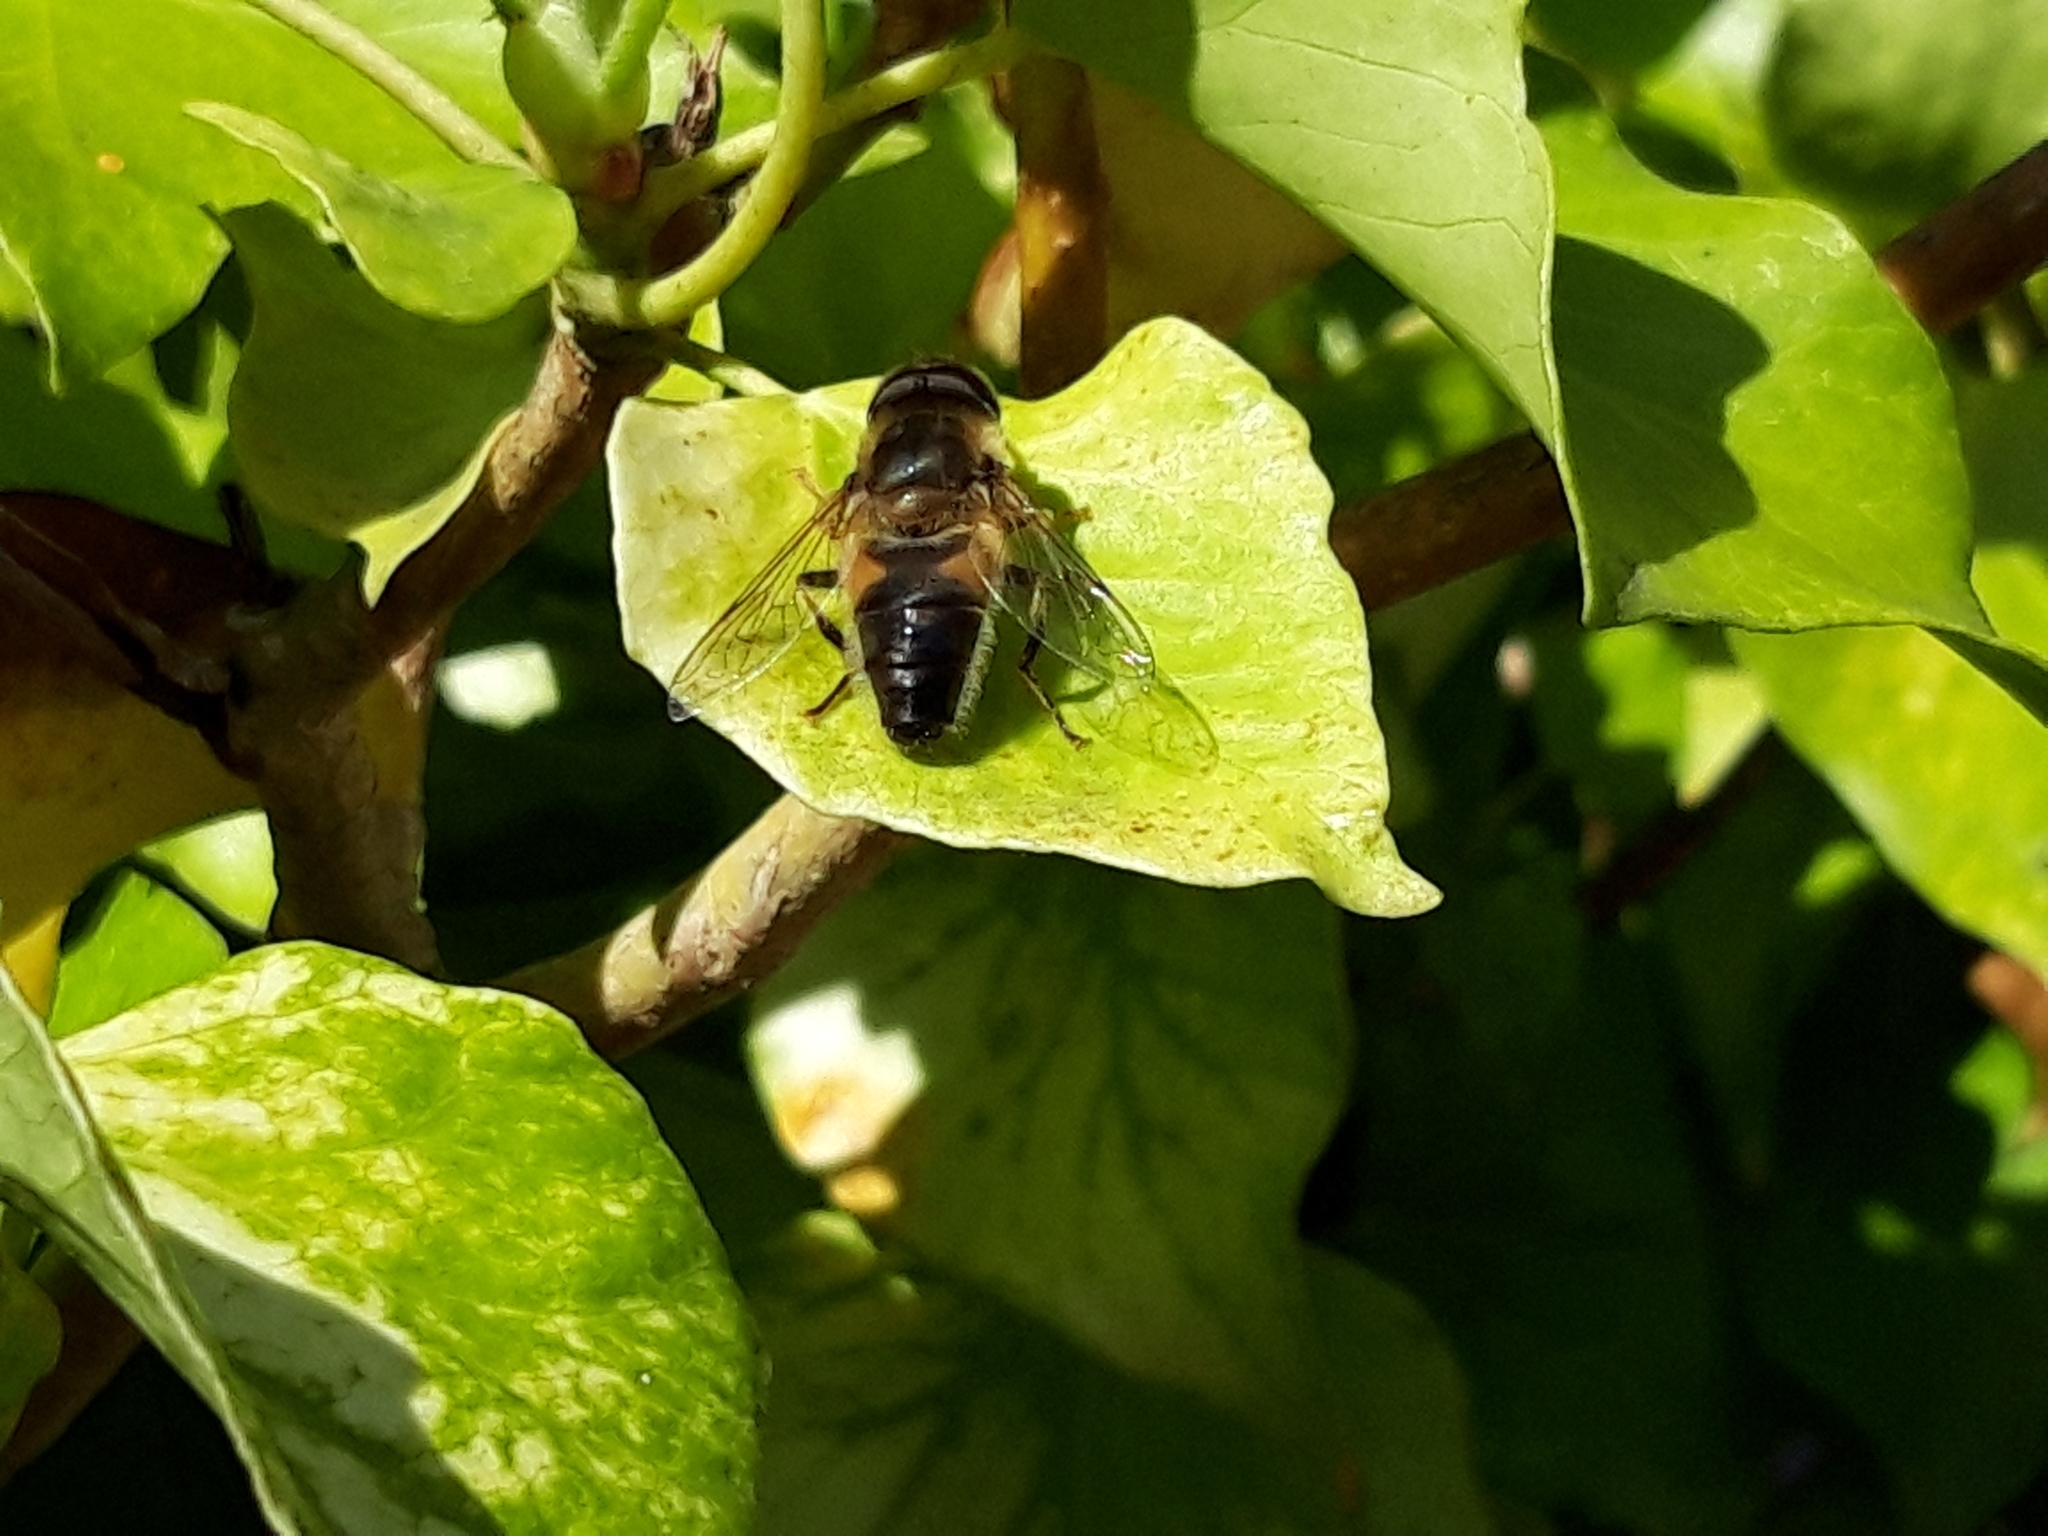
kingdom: Animalia
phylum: Arthropoda
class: Insecta
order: Diptera
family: Syrphidae
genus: Eristalis
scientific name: Eristalis pertinax
